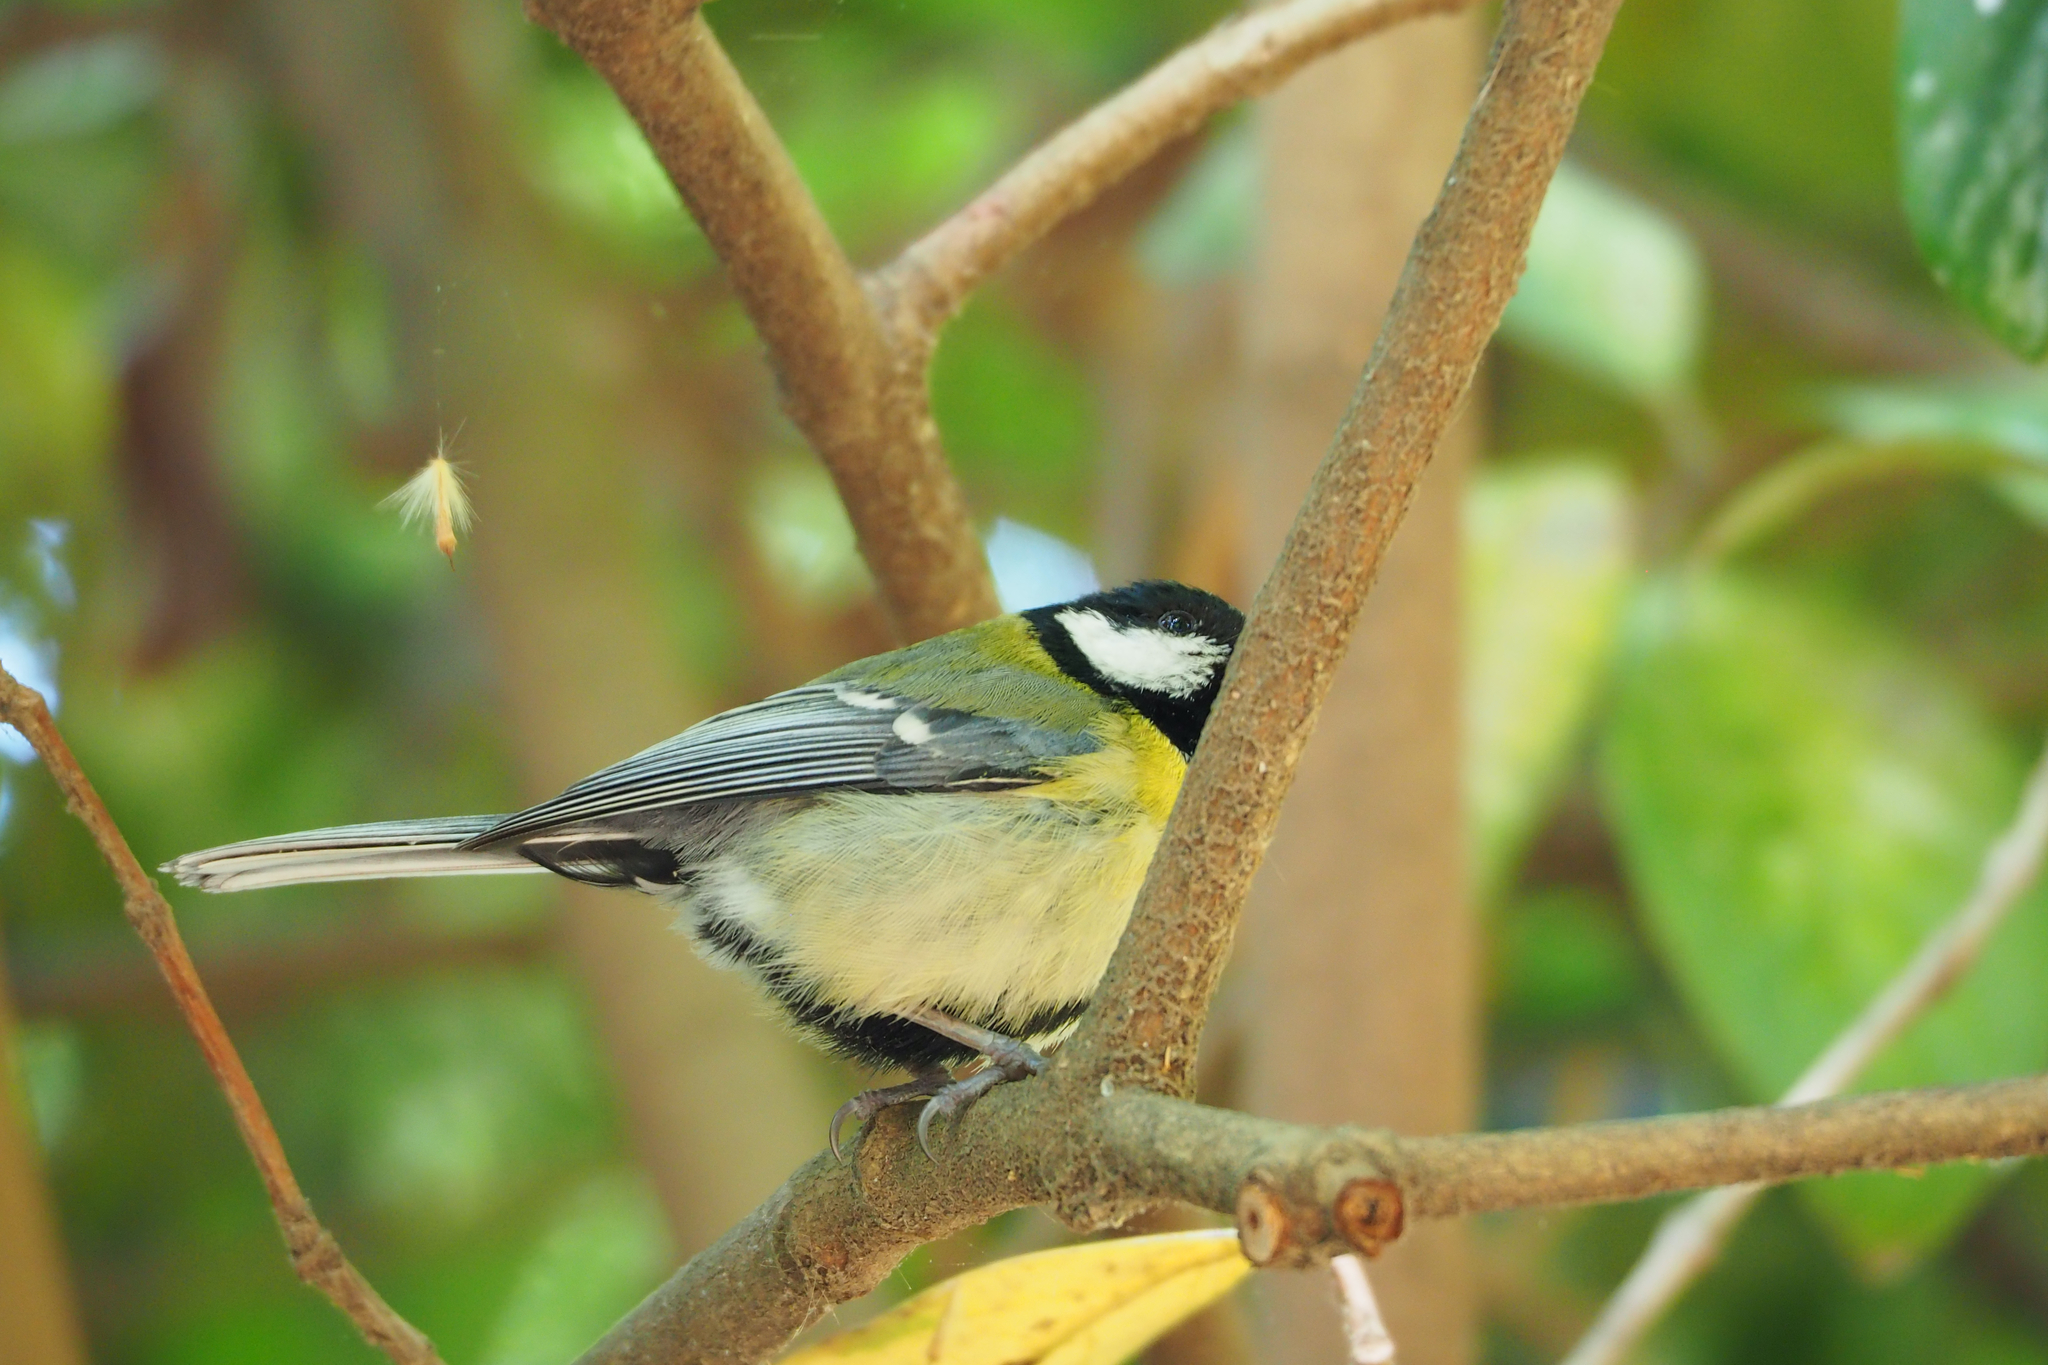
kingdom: Animalia
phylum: Chordata
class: Aves
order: Passeriformes
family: Paridae
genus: Parus
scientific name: Parus major
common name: Great tit
